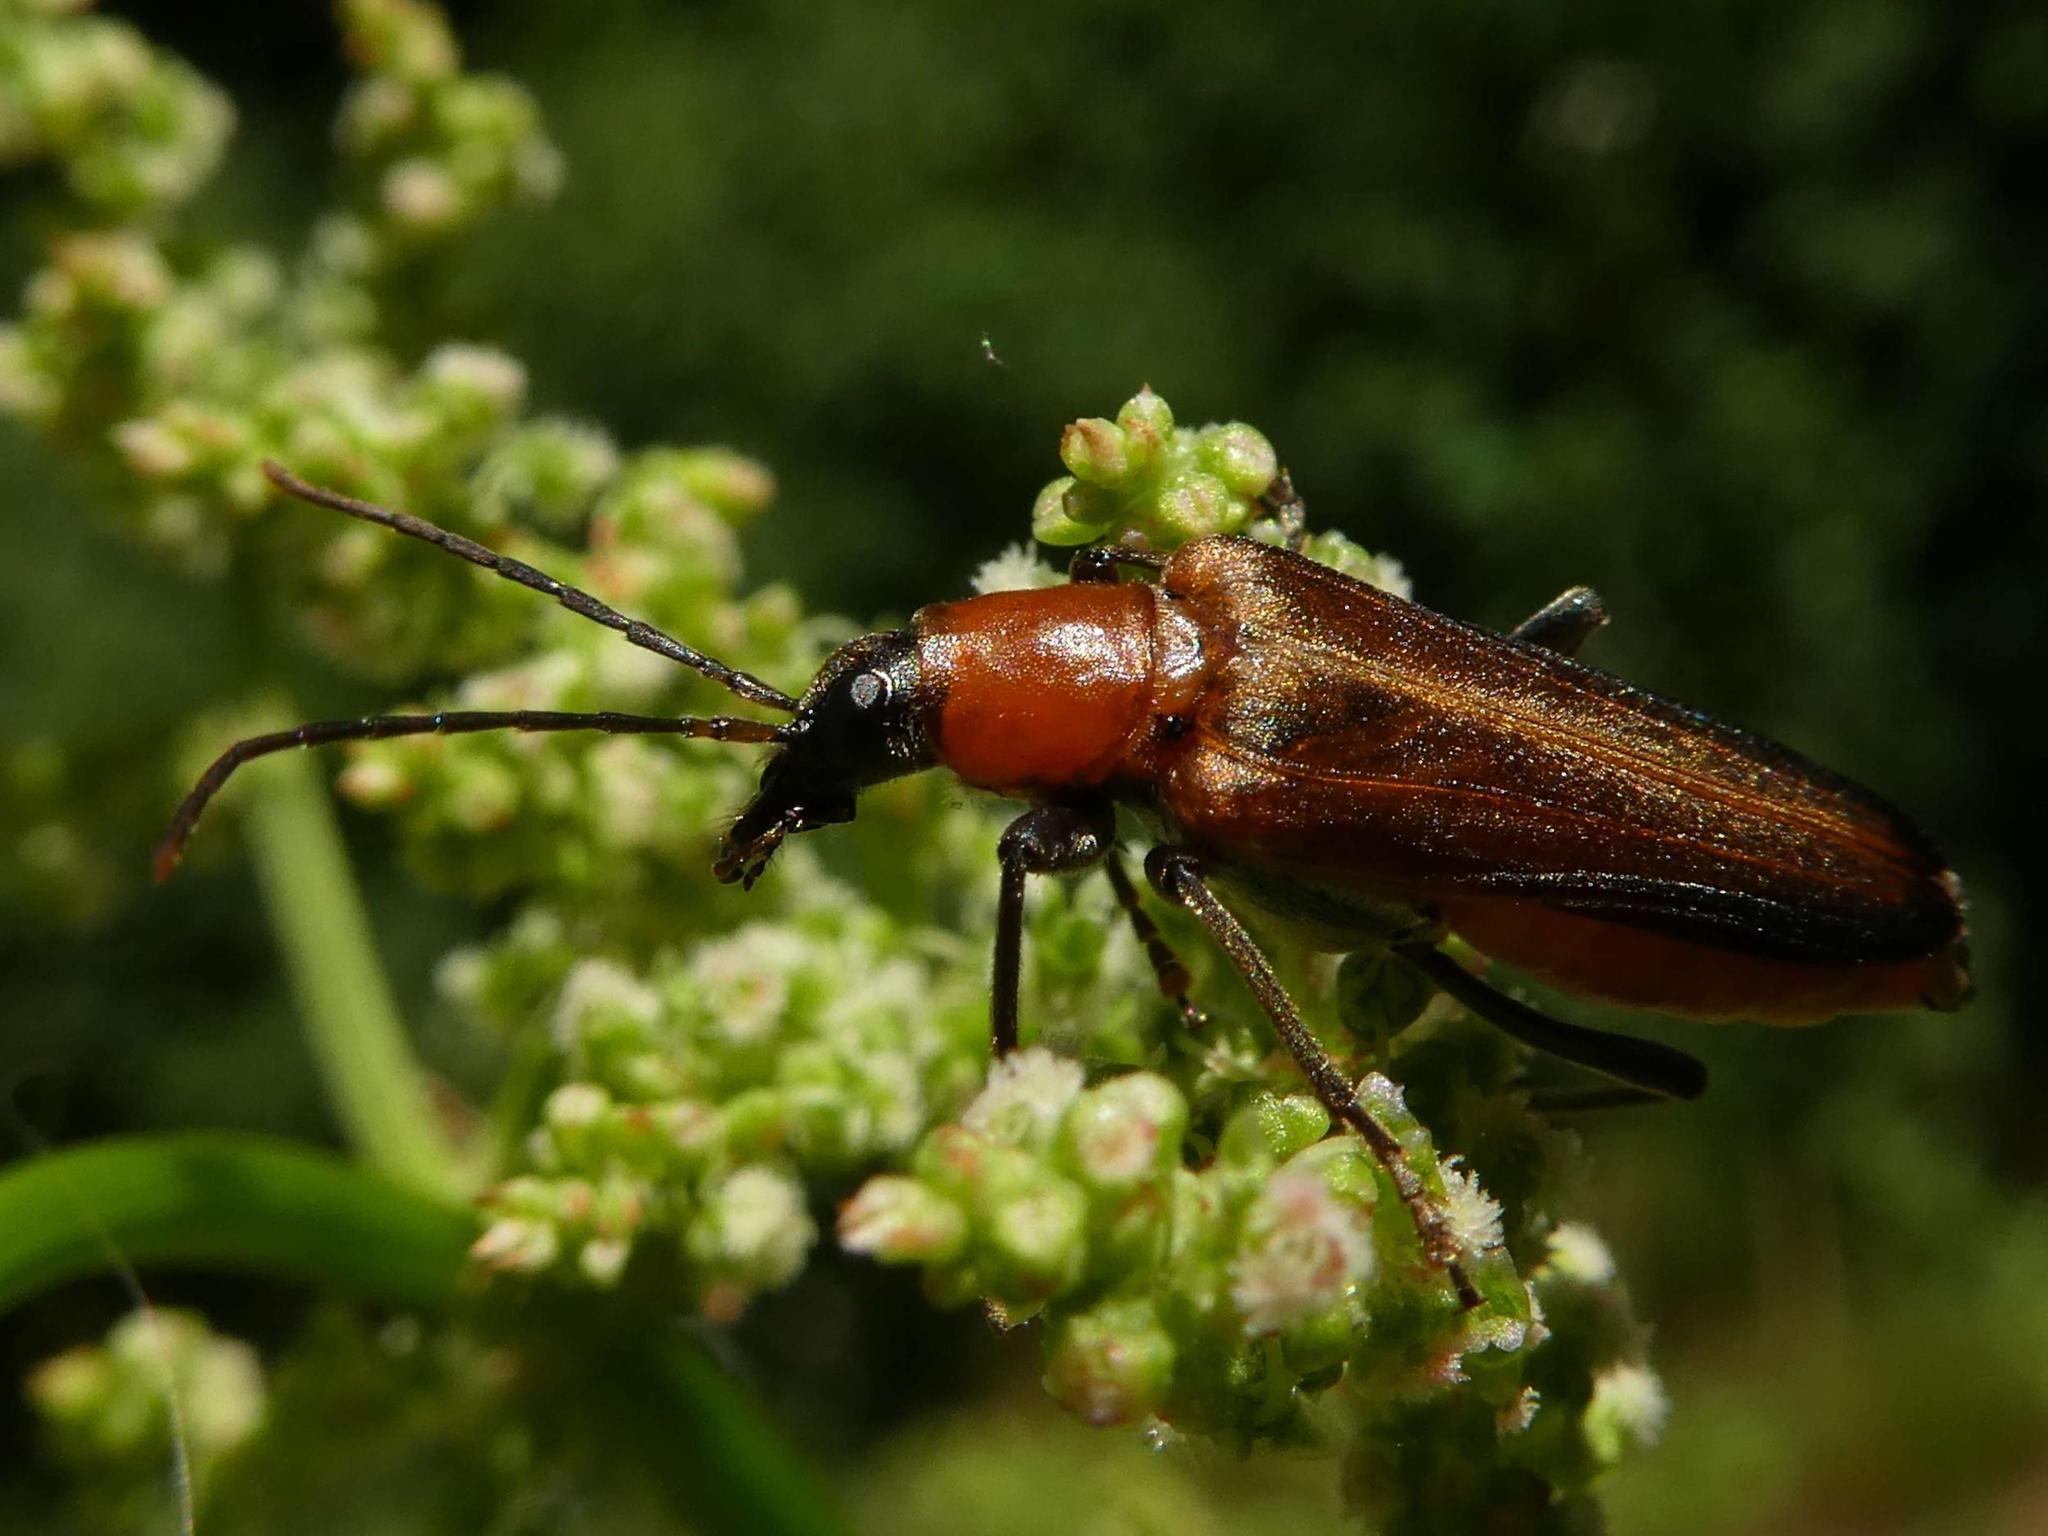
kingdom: Animalia
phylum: Arthropoda
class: Insecta
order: Coleoptera
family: Oedemeridae
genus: Anogcodes
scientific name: Anogcodes rufiventris
